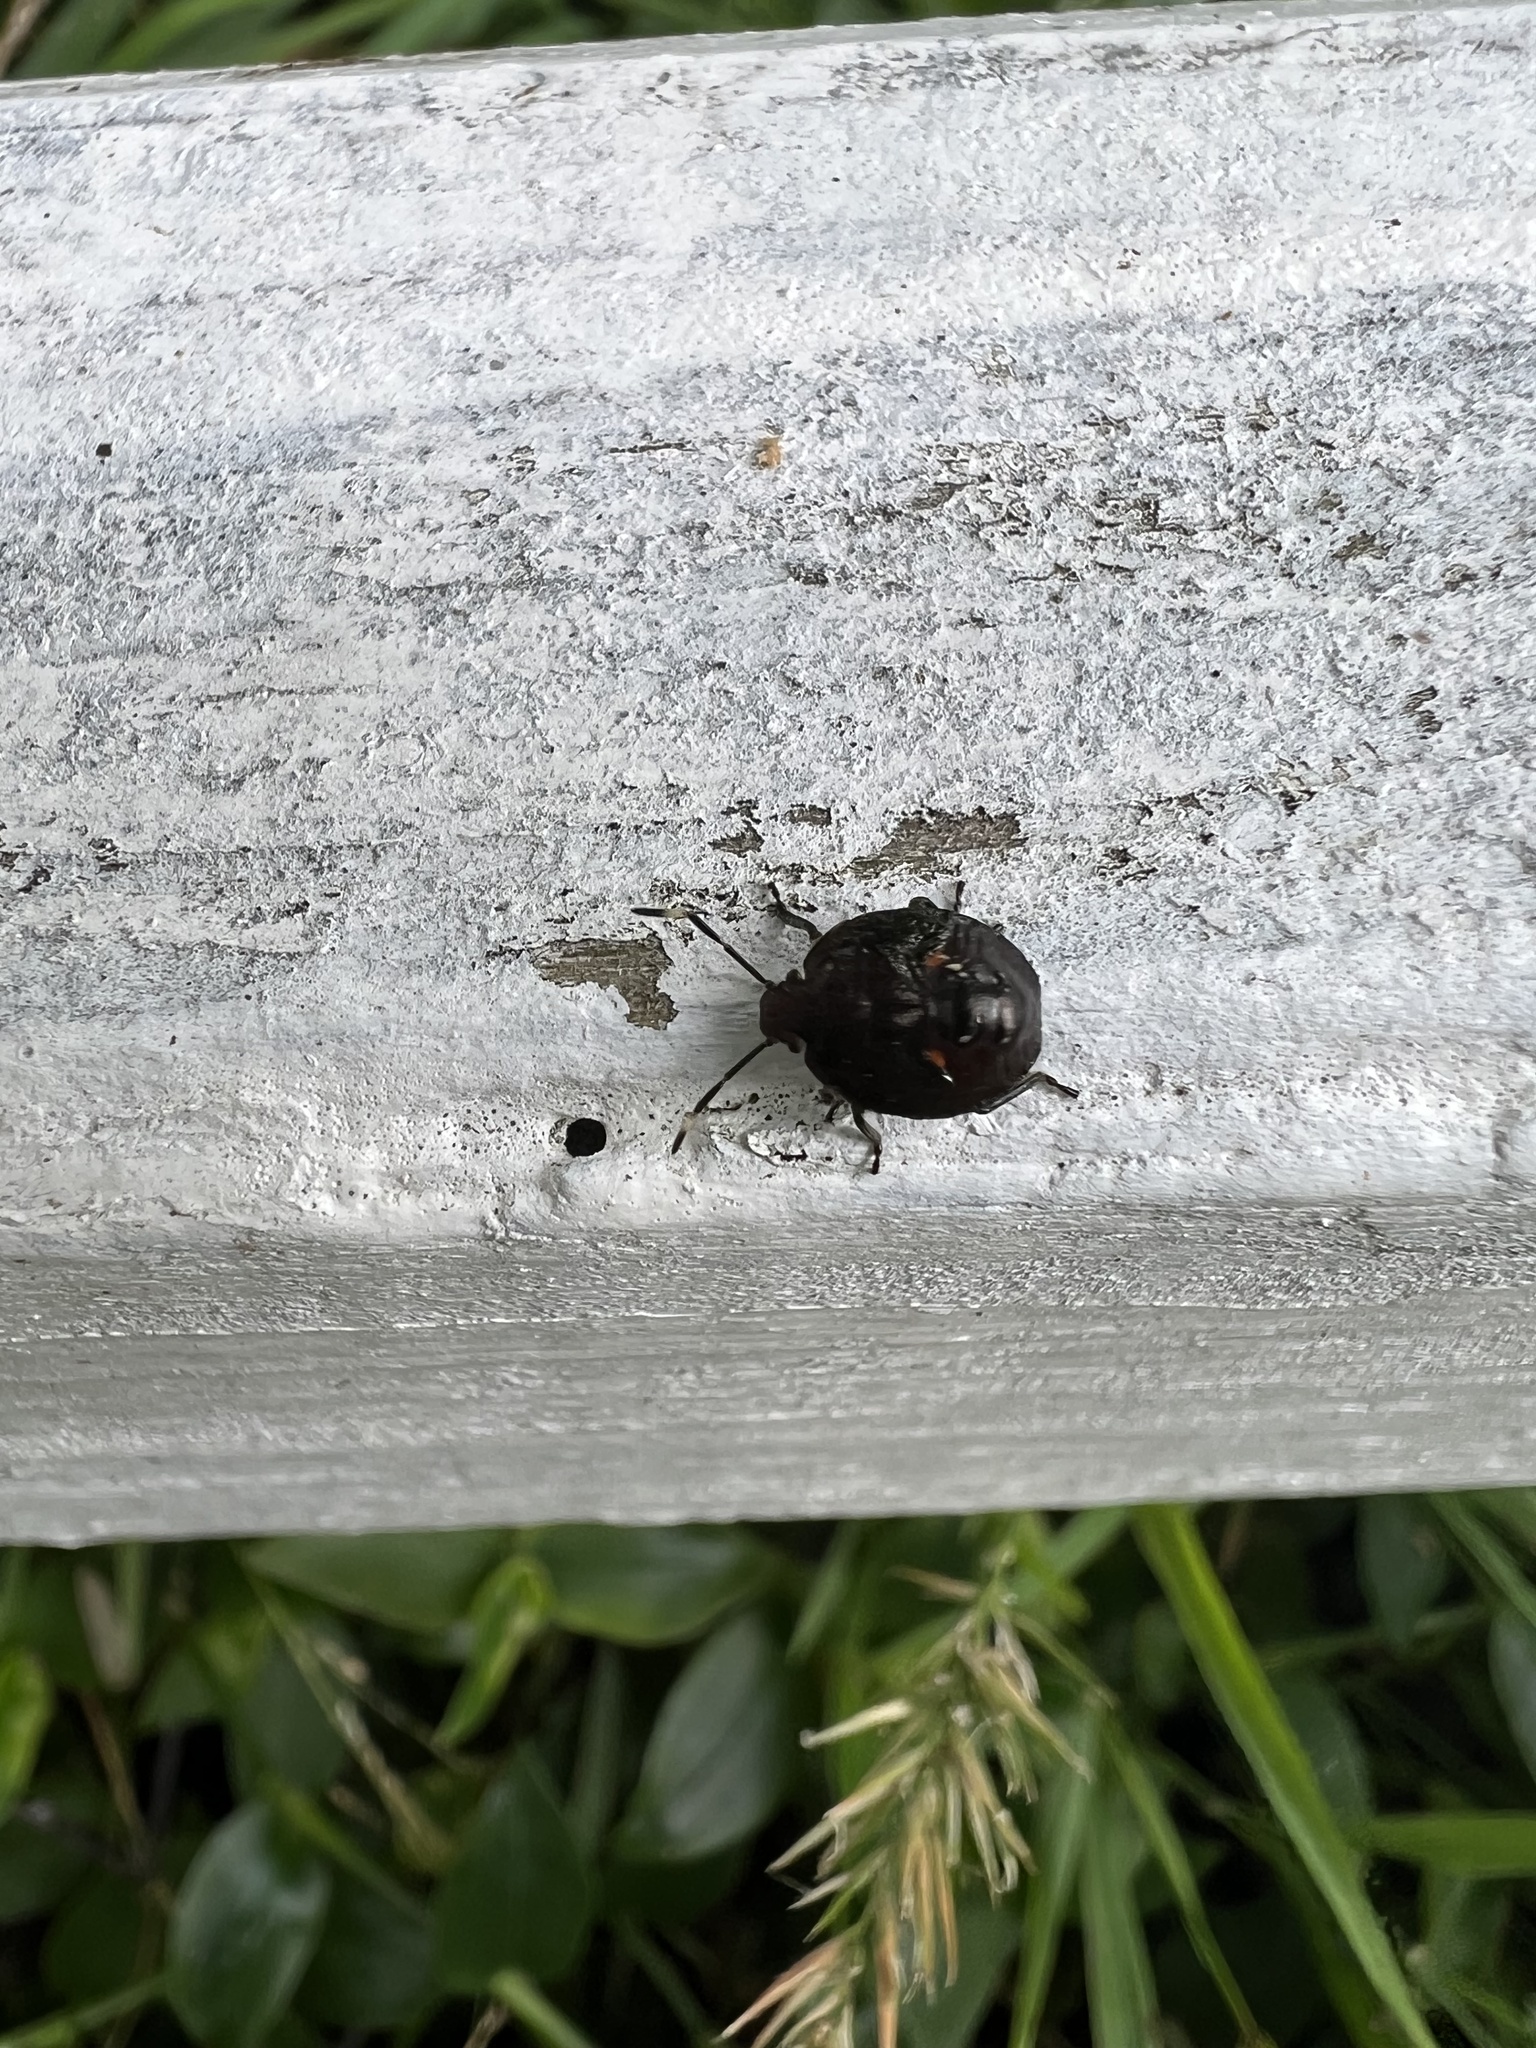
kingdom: Animalia
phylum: Arthropoda
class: Insecta
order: Hemiptera
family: Pentatomidae
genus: Monteithiella
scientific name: Monteithiella
